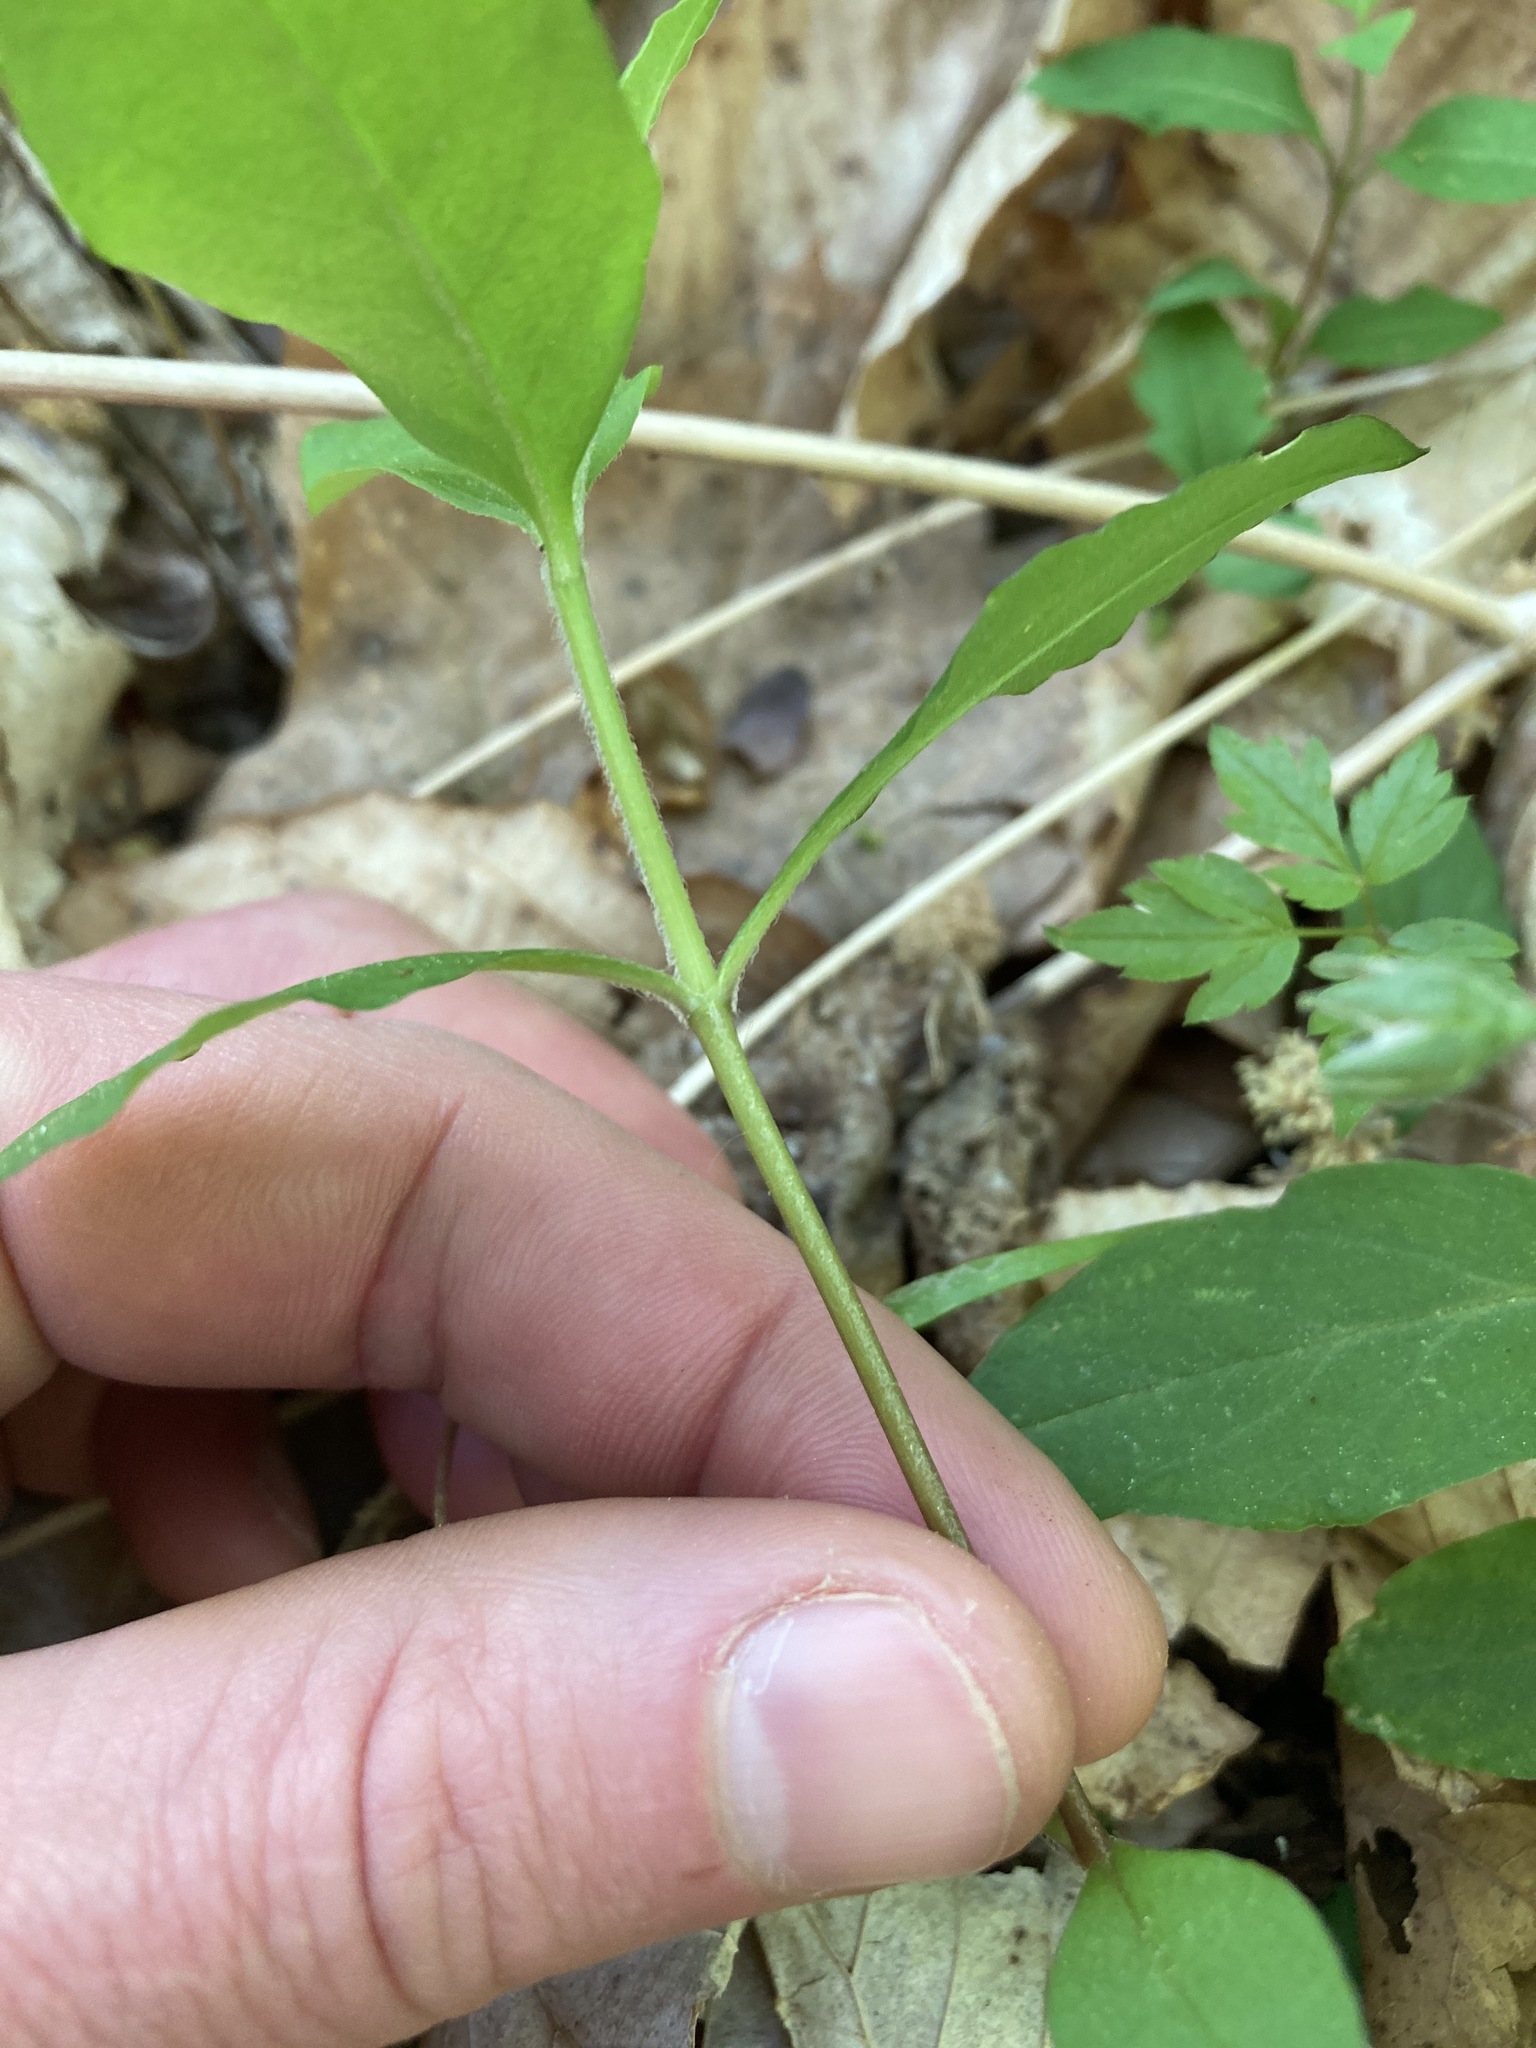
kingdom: Plantae
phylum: Tracheophyta
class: Magnoliopsida
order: Caryophyllales
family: Caryophyllaceae
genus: Stellaria
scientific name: Stellaria pubera
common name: Star chickweed
